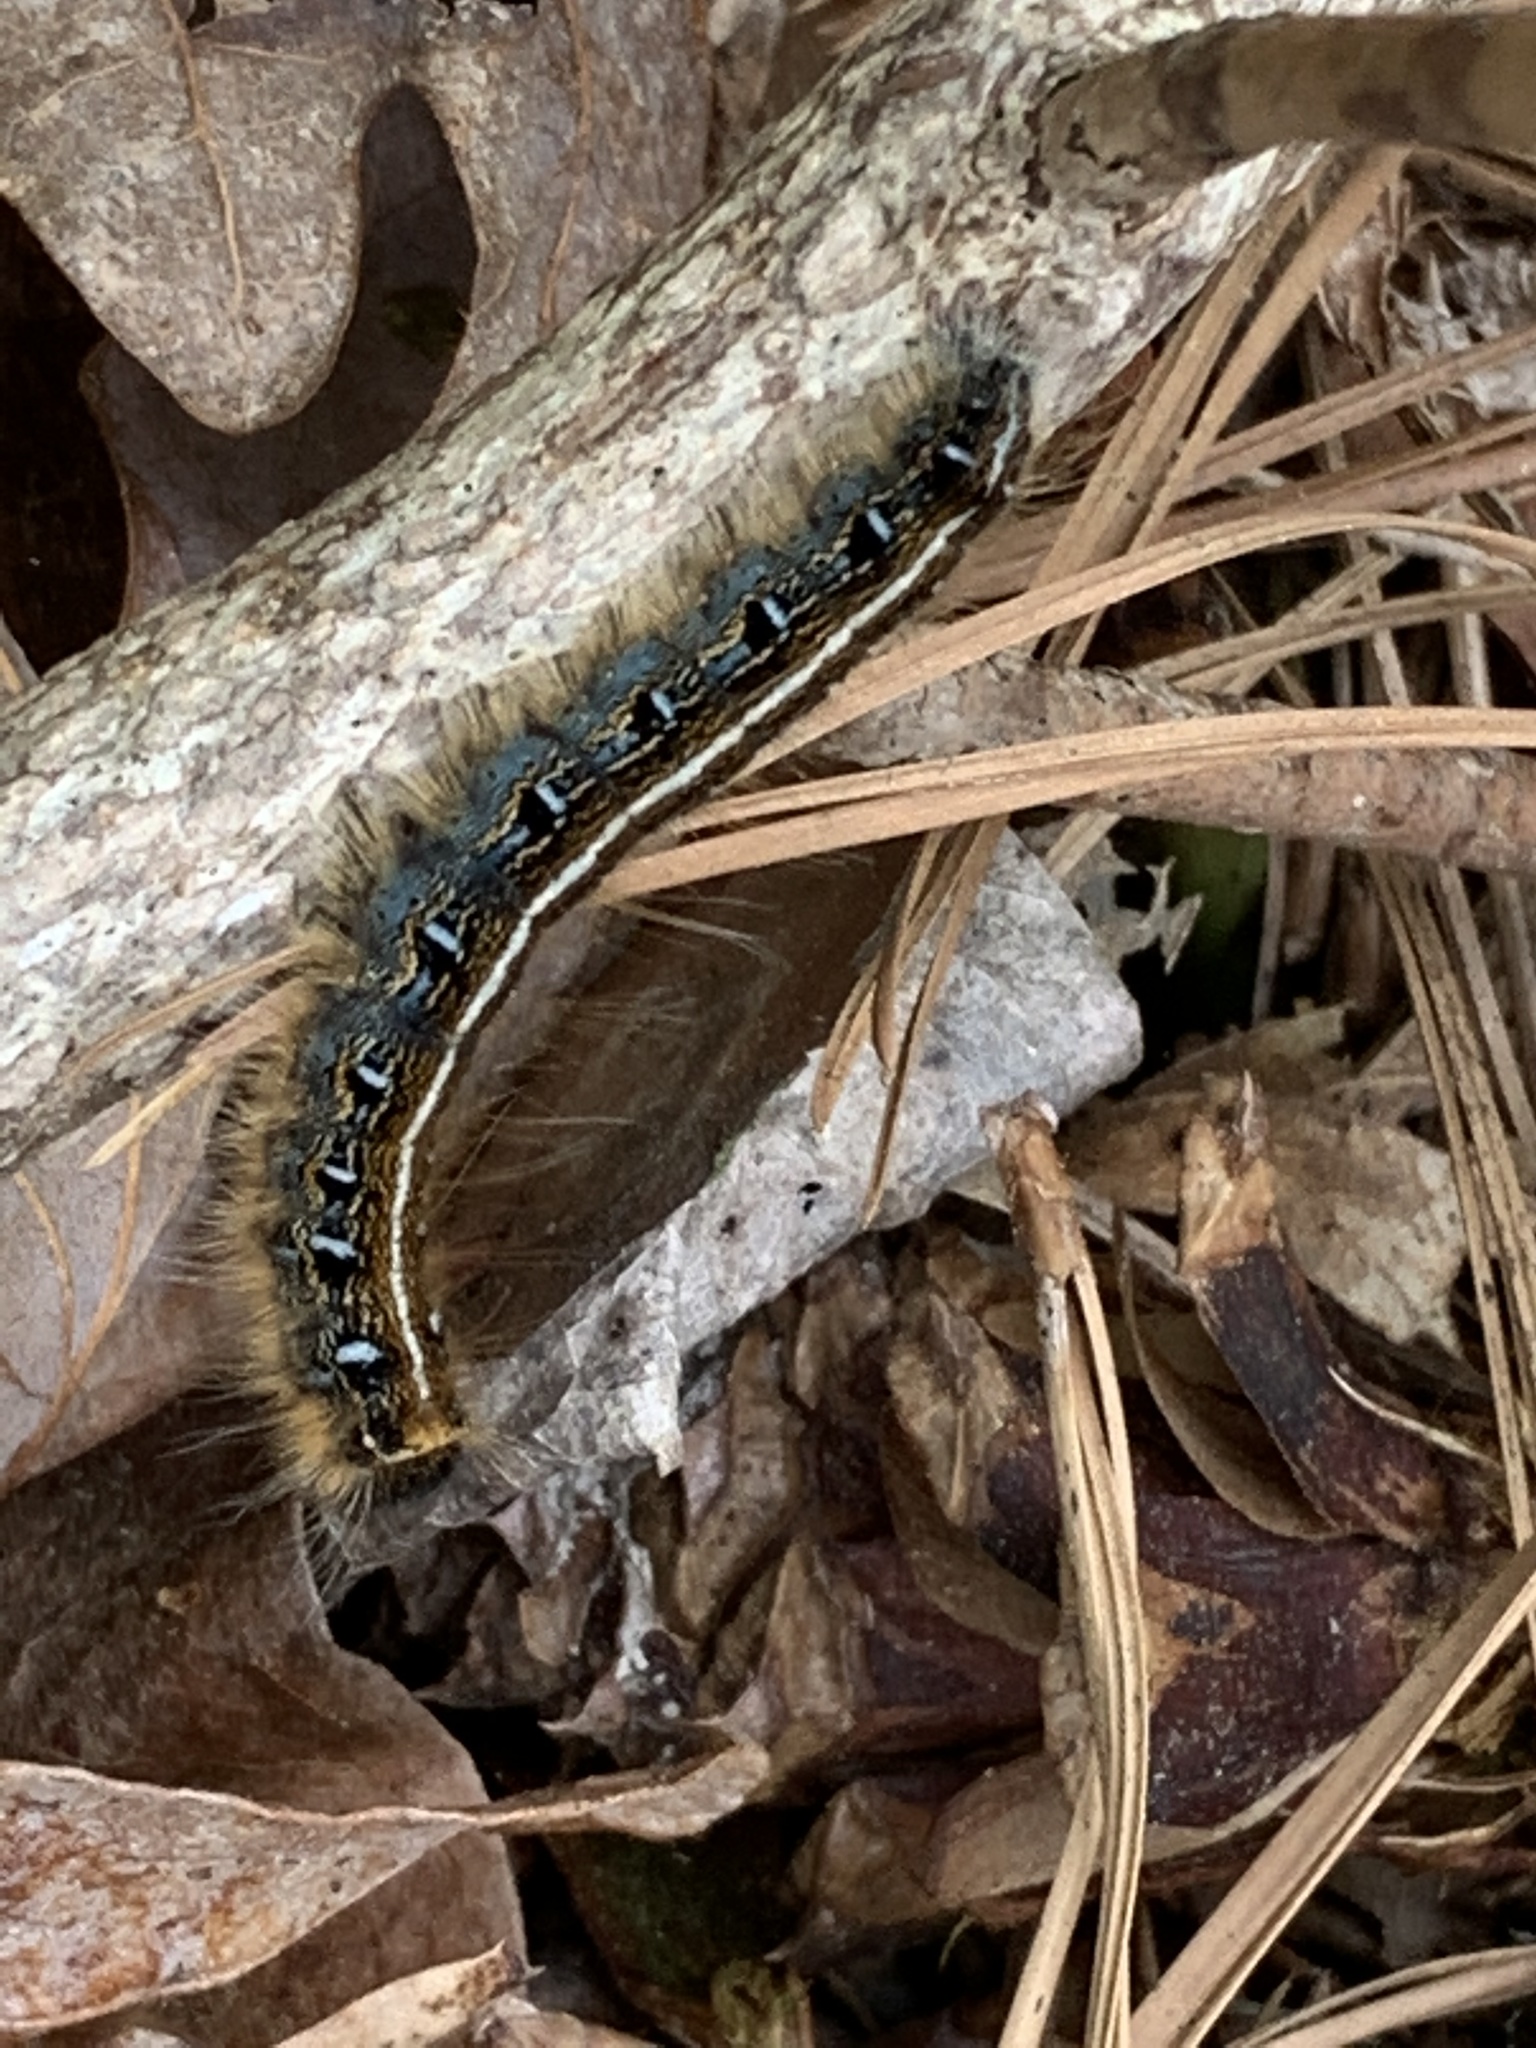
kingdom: Animalia
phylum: Arthropoda
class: Insecta
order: Lepidoptera
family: Lasiocampidae
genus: Malacosoma
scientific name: Malacosoma americana
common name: Eastern tent caterpillar moth
